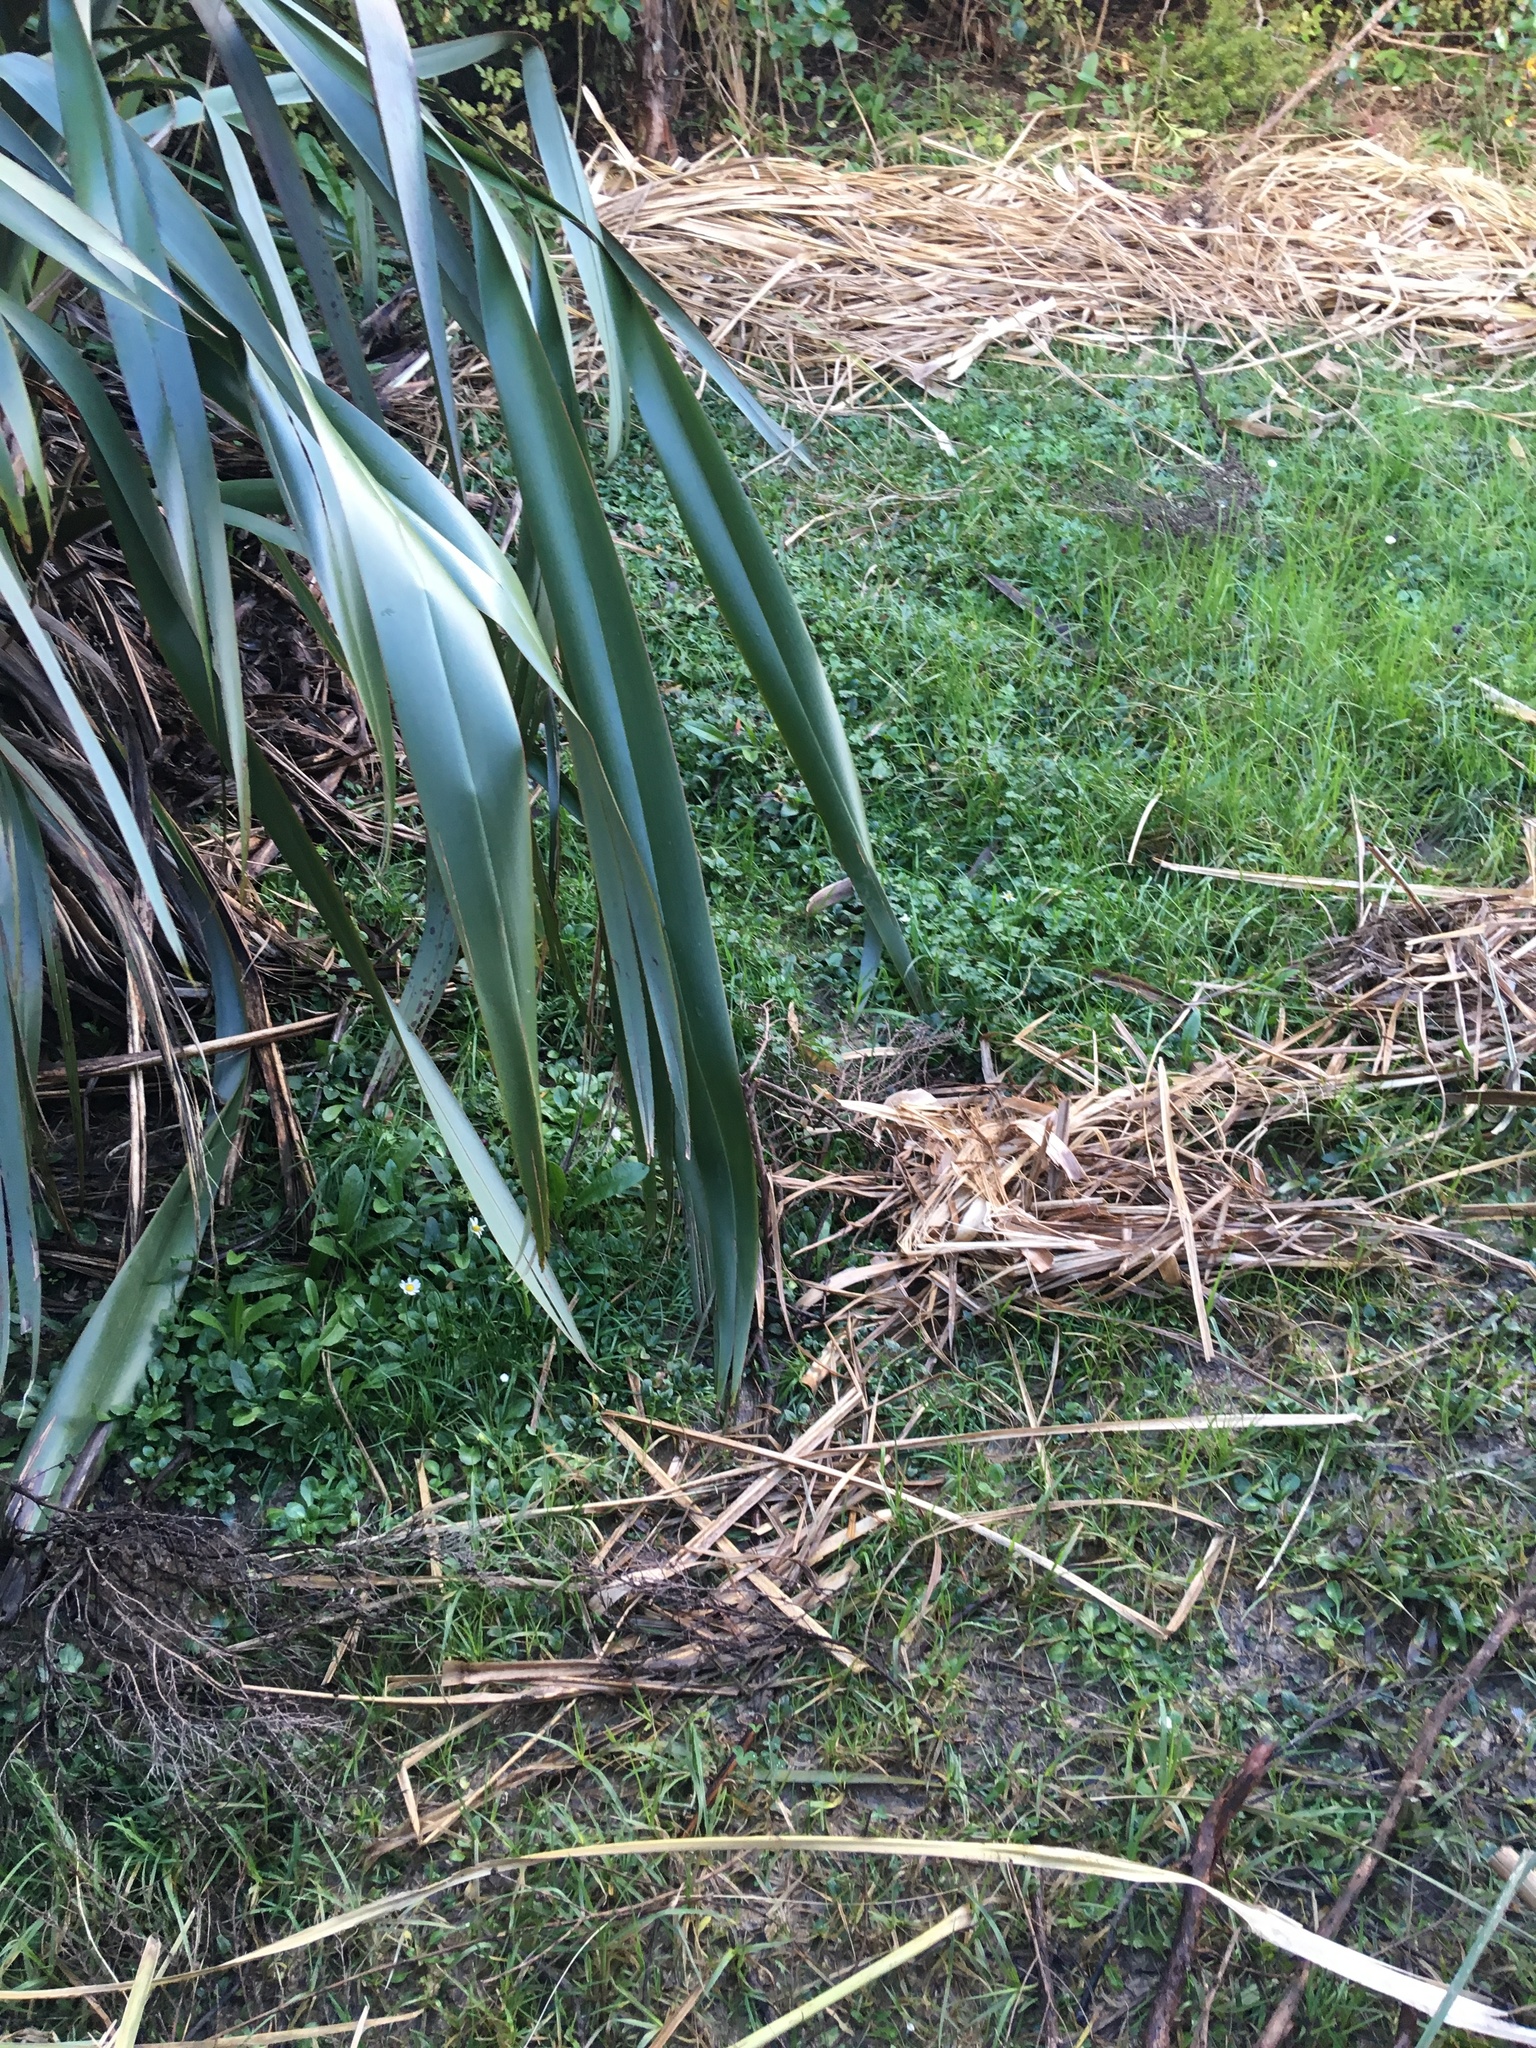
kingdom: Plantae
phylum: Tracheophyta
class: Magnoliopsida
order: Asterales
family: Asteraceae
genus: Bellis
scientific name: Bellis perennis
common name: Lawndaisy
